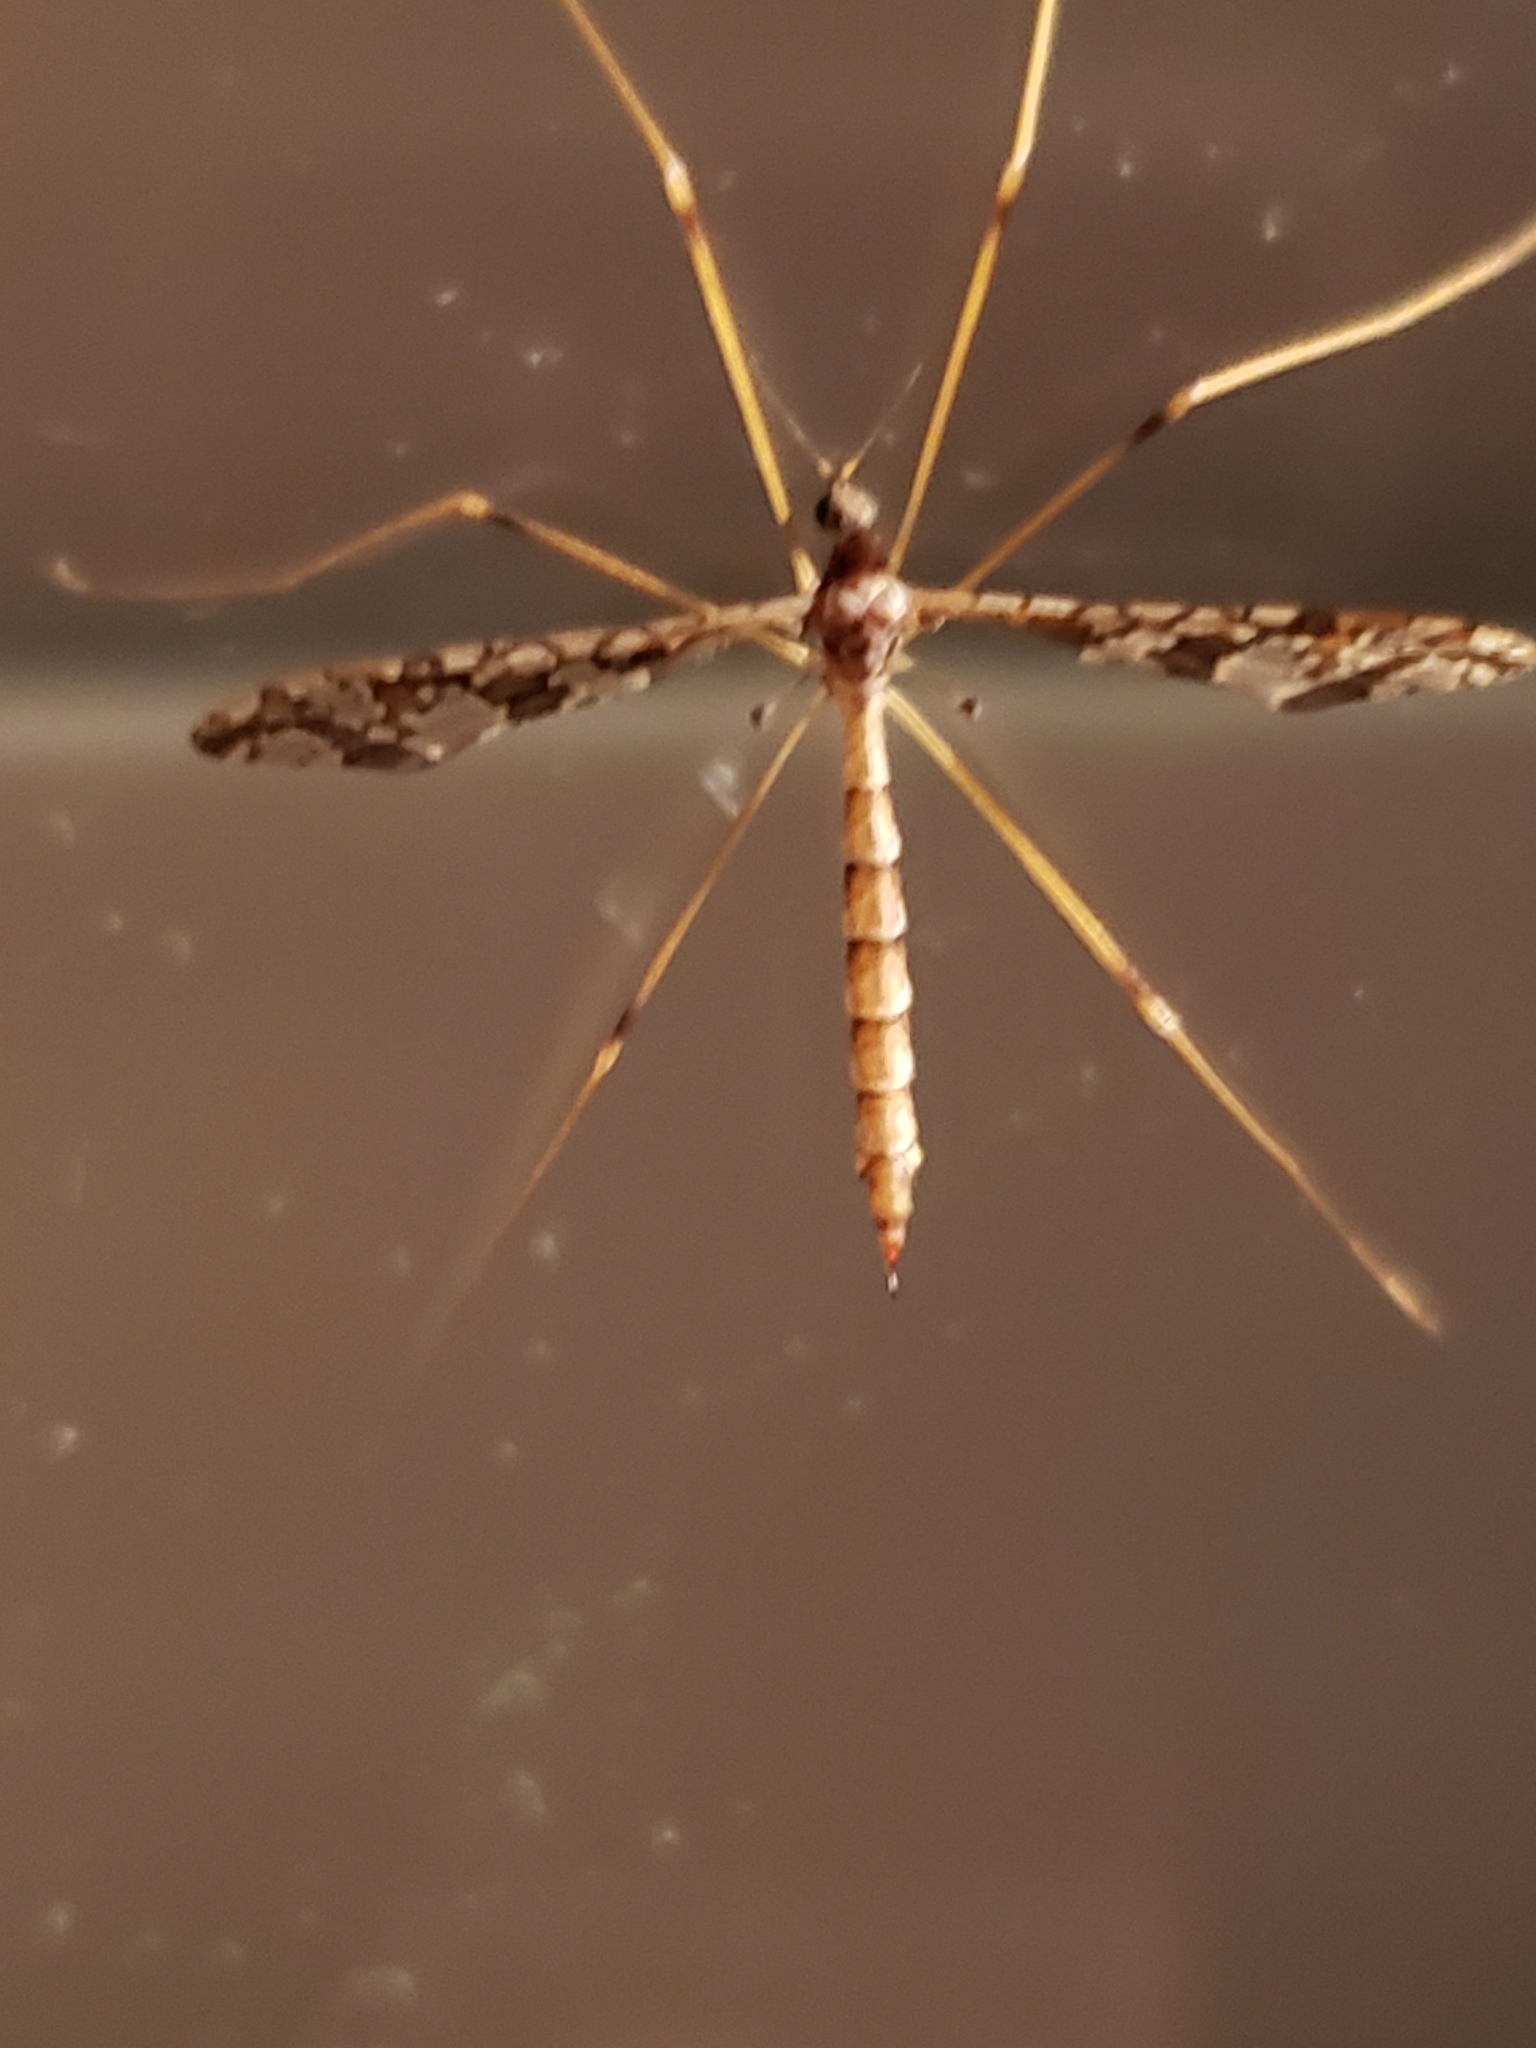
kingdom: Animalia
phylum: Arthropoda
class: Insecta
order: Diptera
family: Limoniidae
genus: Epiphragma
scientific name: Epiphragma solatrix
